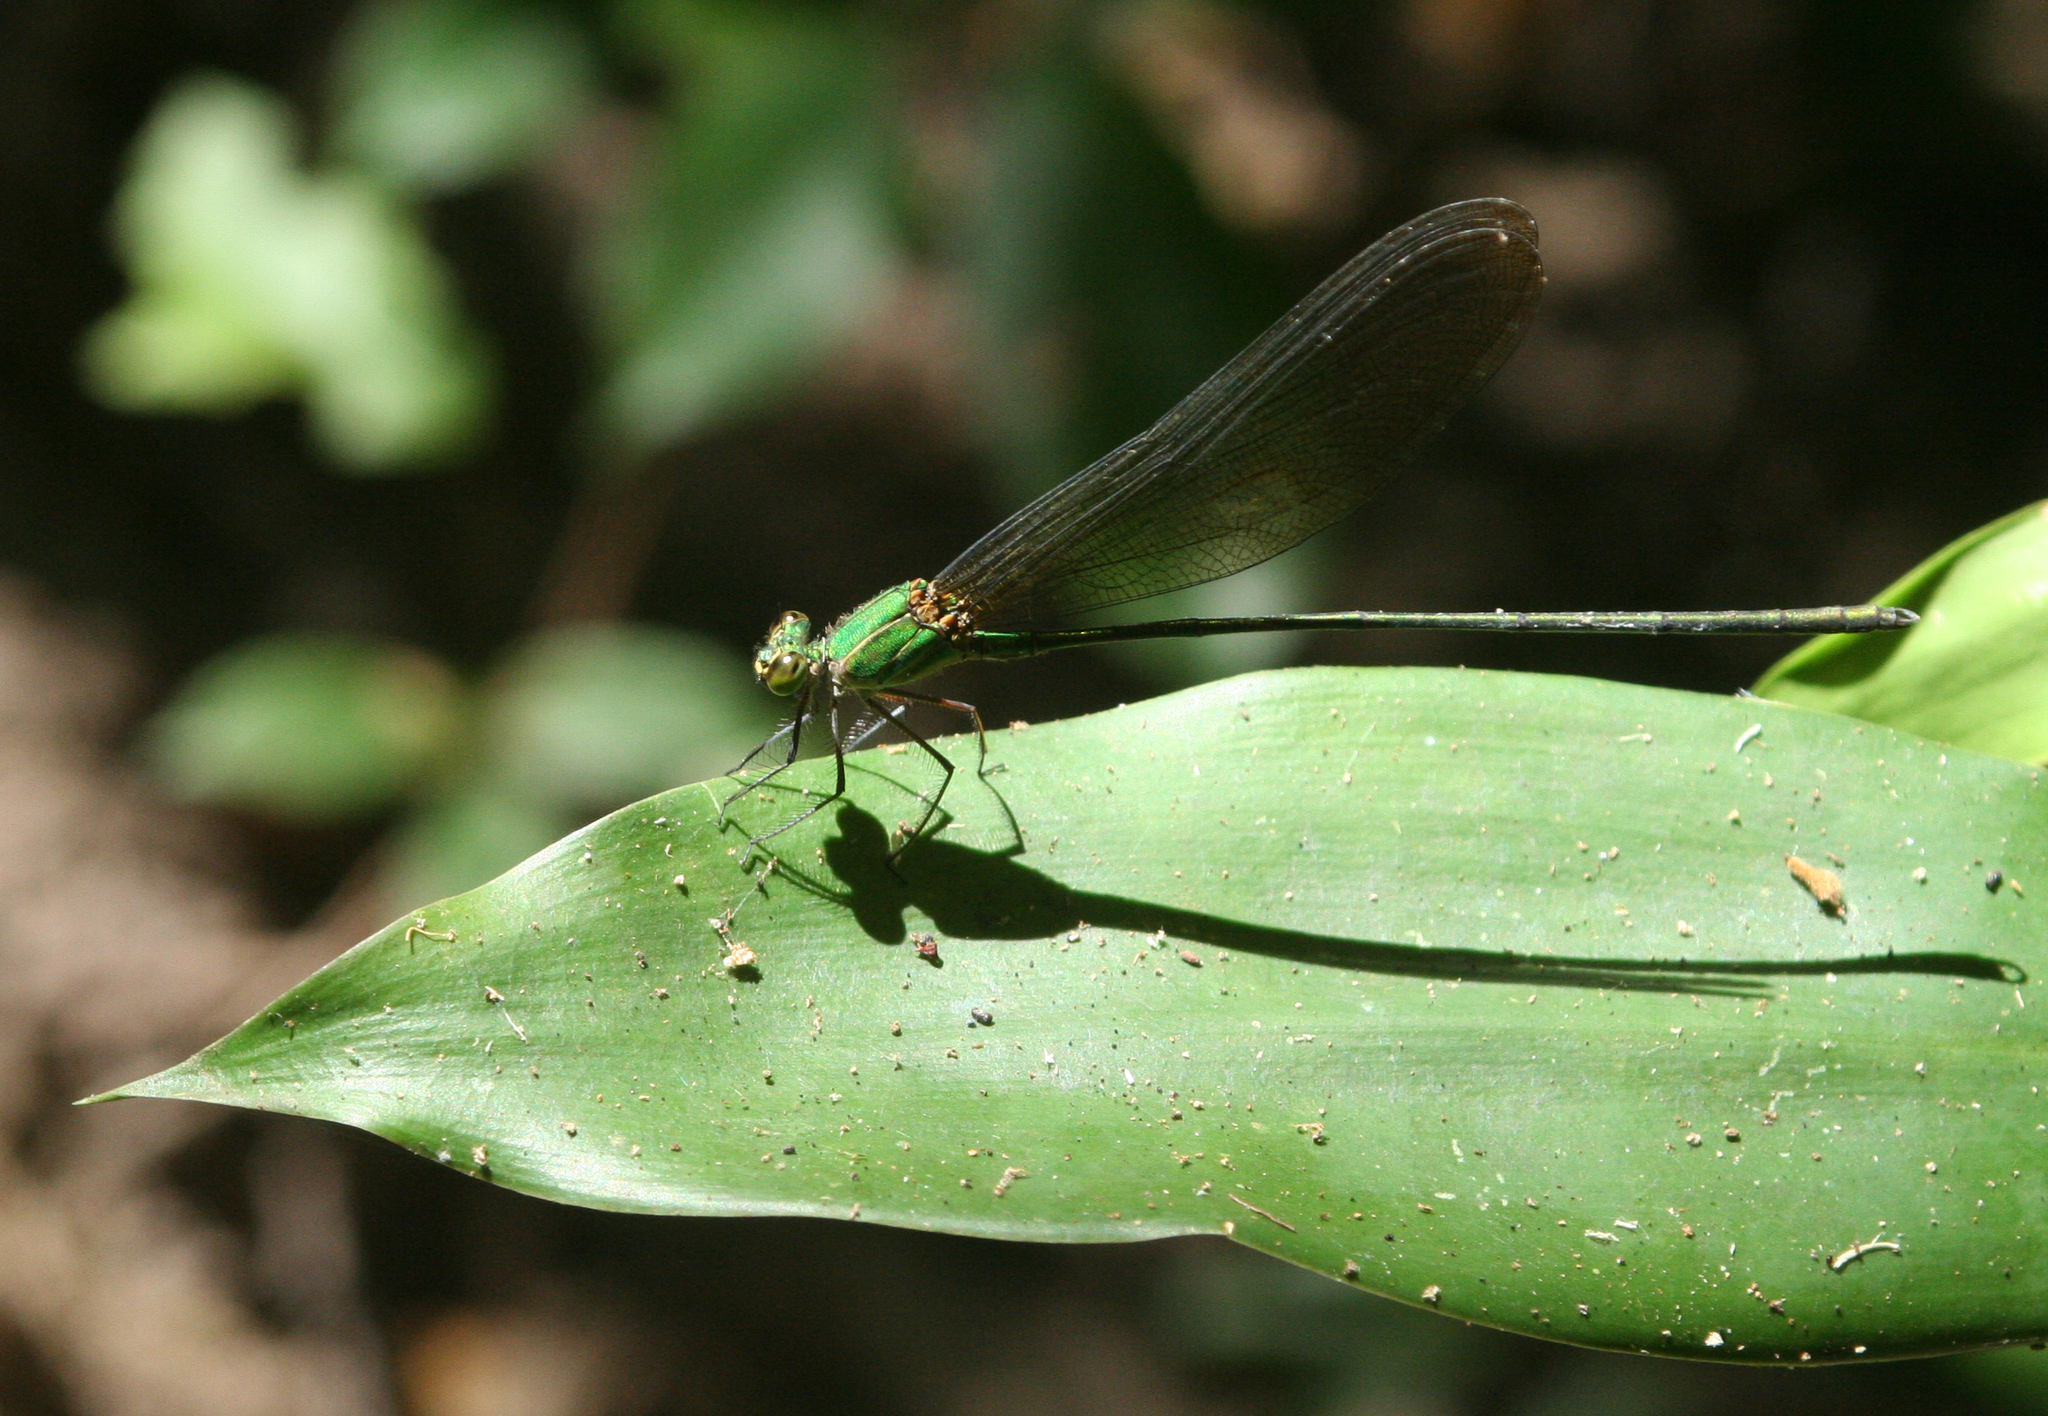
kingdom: Animalia
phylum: Arthropoda
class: Insecta
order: Odonata
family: Calopterygidae
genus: Vestalis
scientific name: Vestalis gracilis
